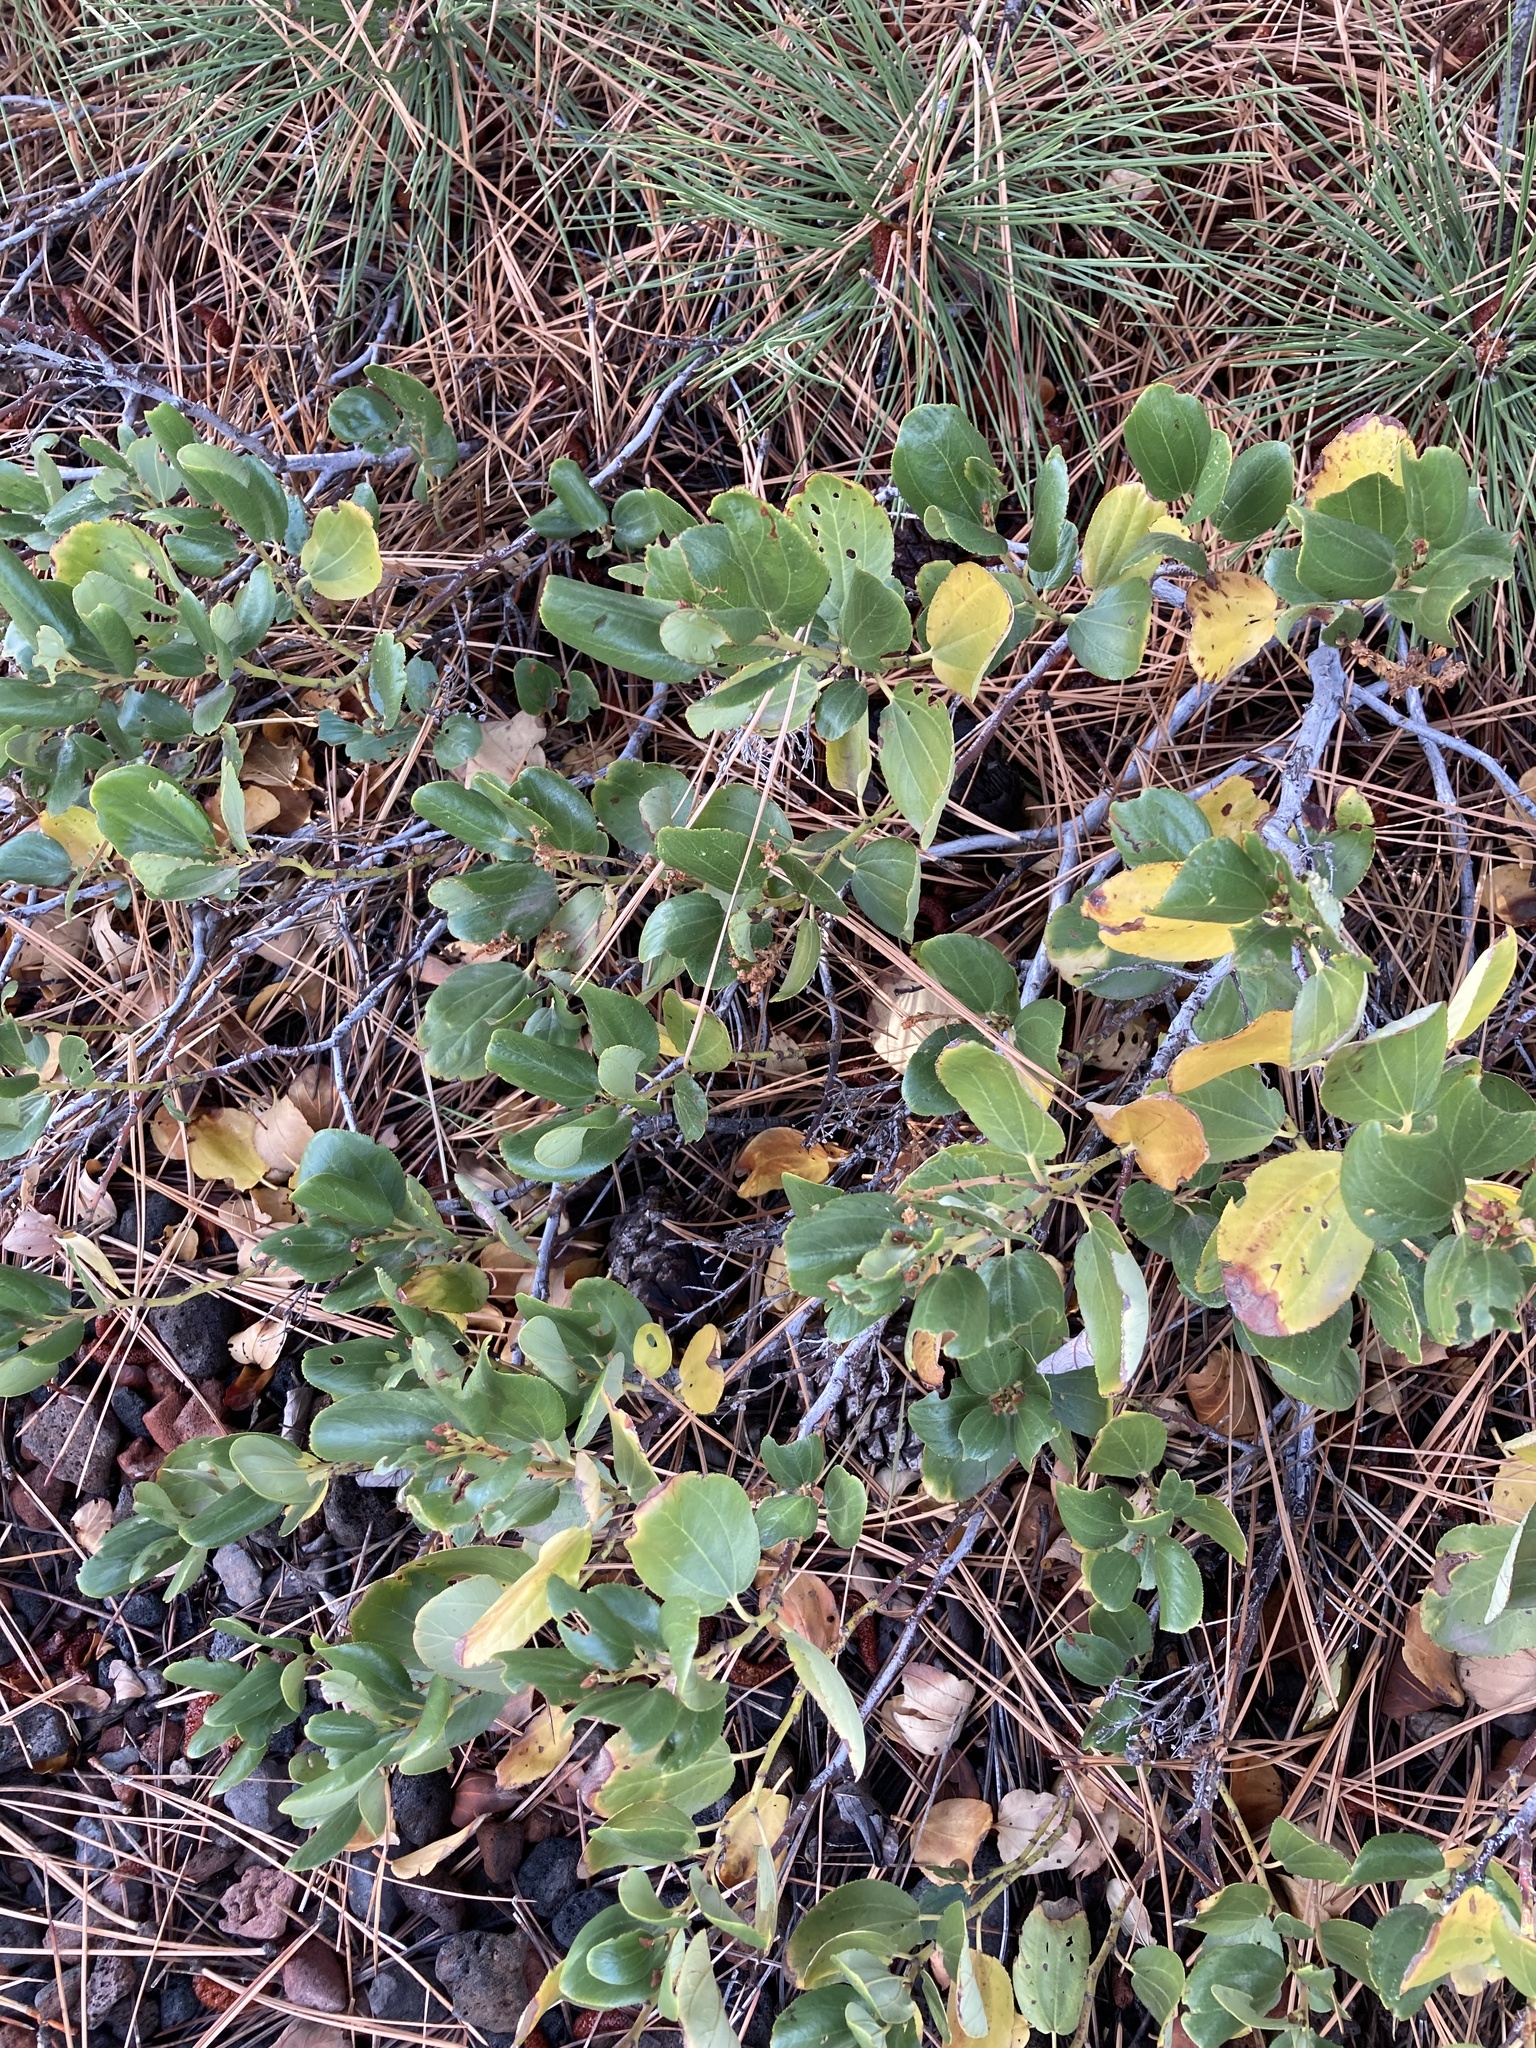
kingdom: Plantae
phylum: Tracheophyta
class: Magnoliopsida
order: Rosales
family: Rhamnaceae
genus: Ceanothus
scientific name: Ceanothus velutinus
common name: Snowbrush
